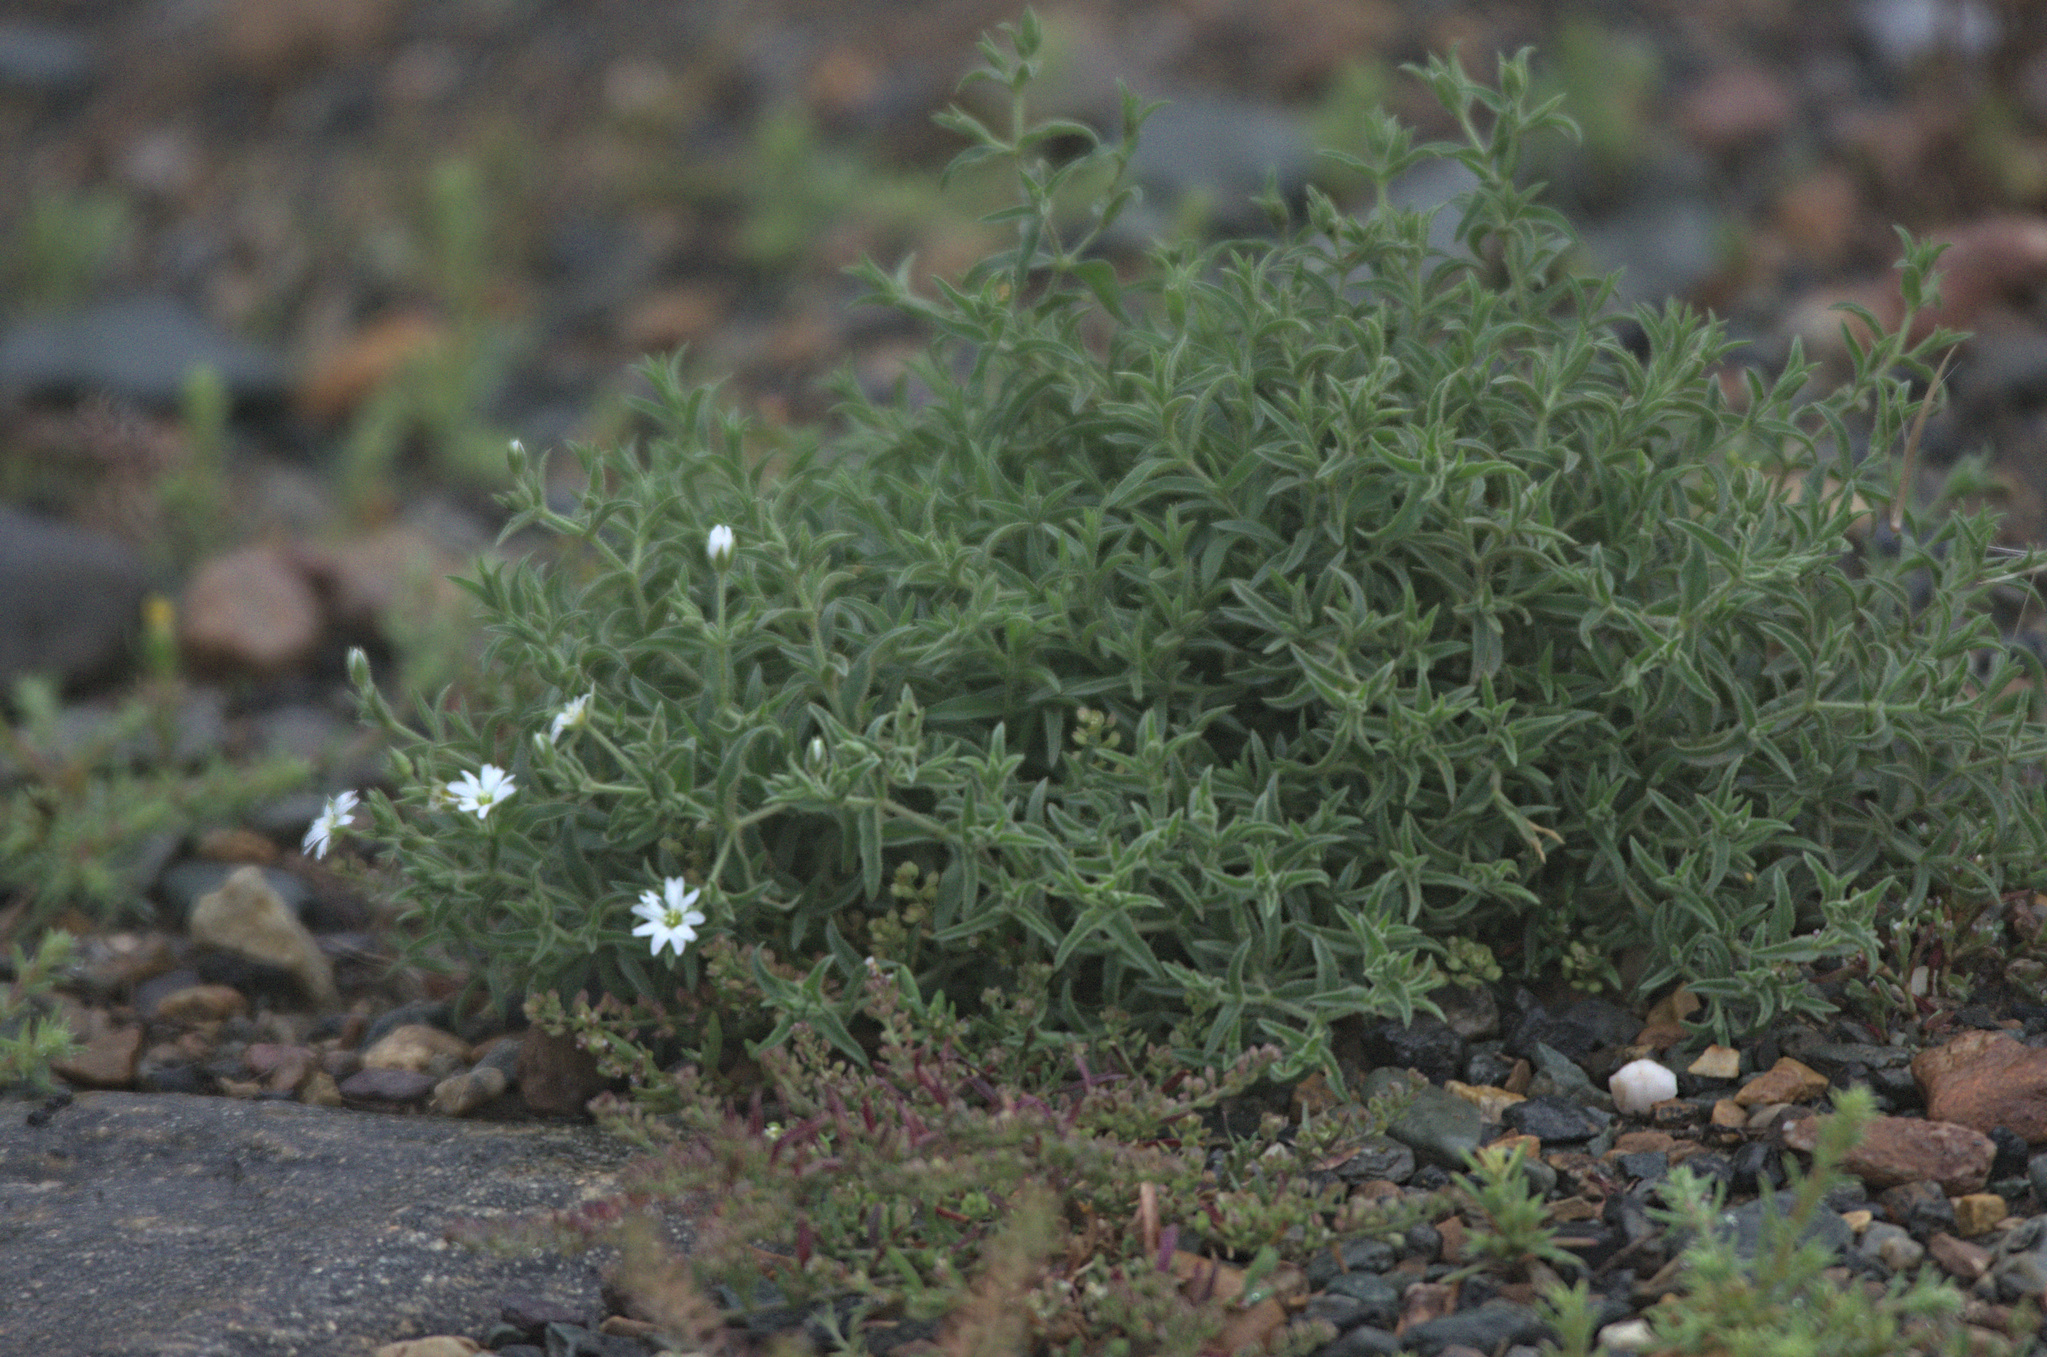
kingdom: Plantae
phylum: Tracheophyta
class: Magnoliopsida
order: Caryophyllales
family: Caryophyllaceae
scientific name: Caryophyllaceae
